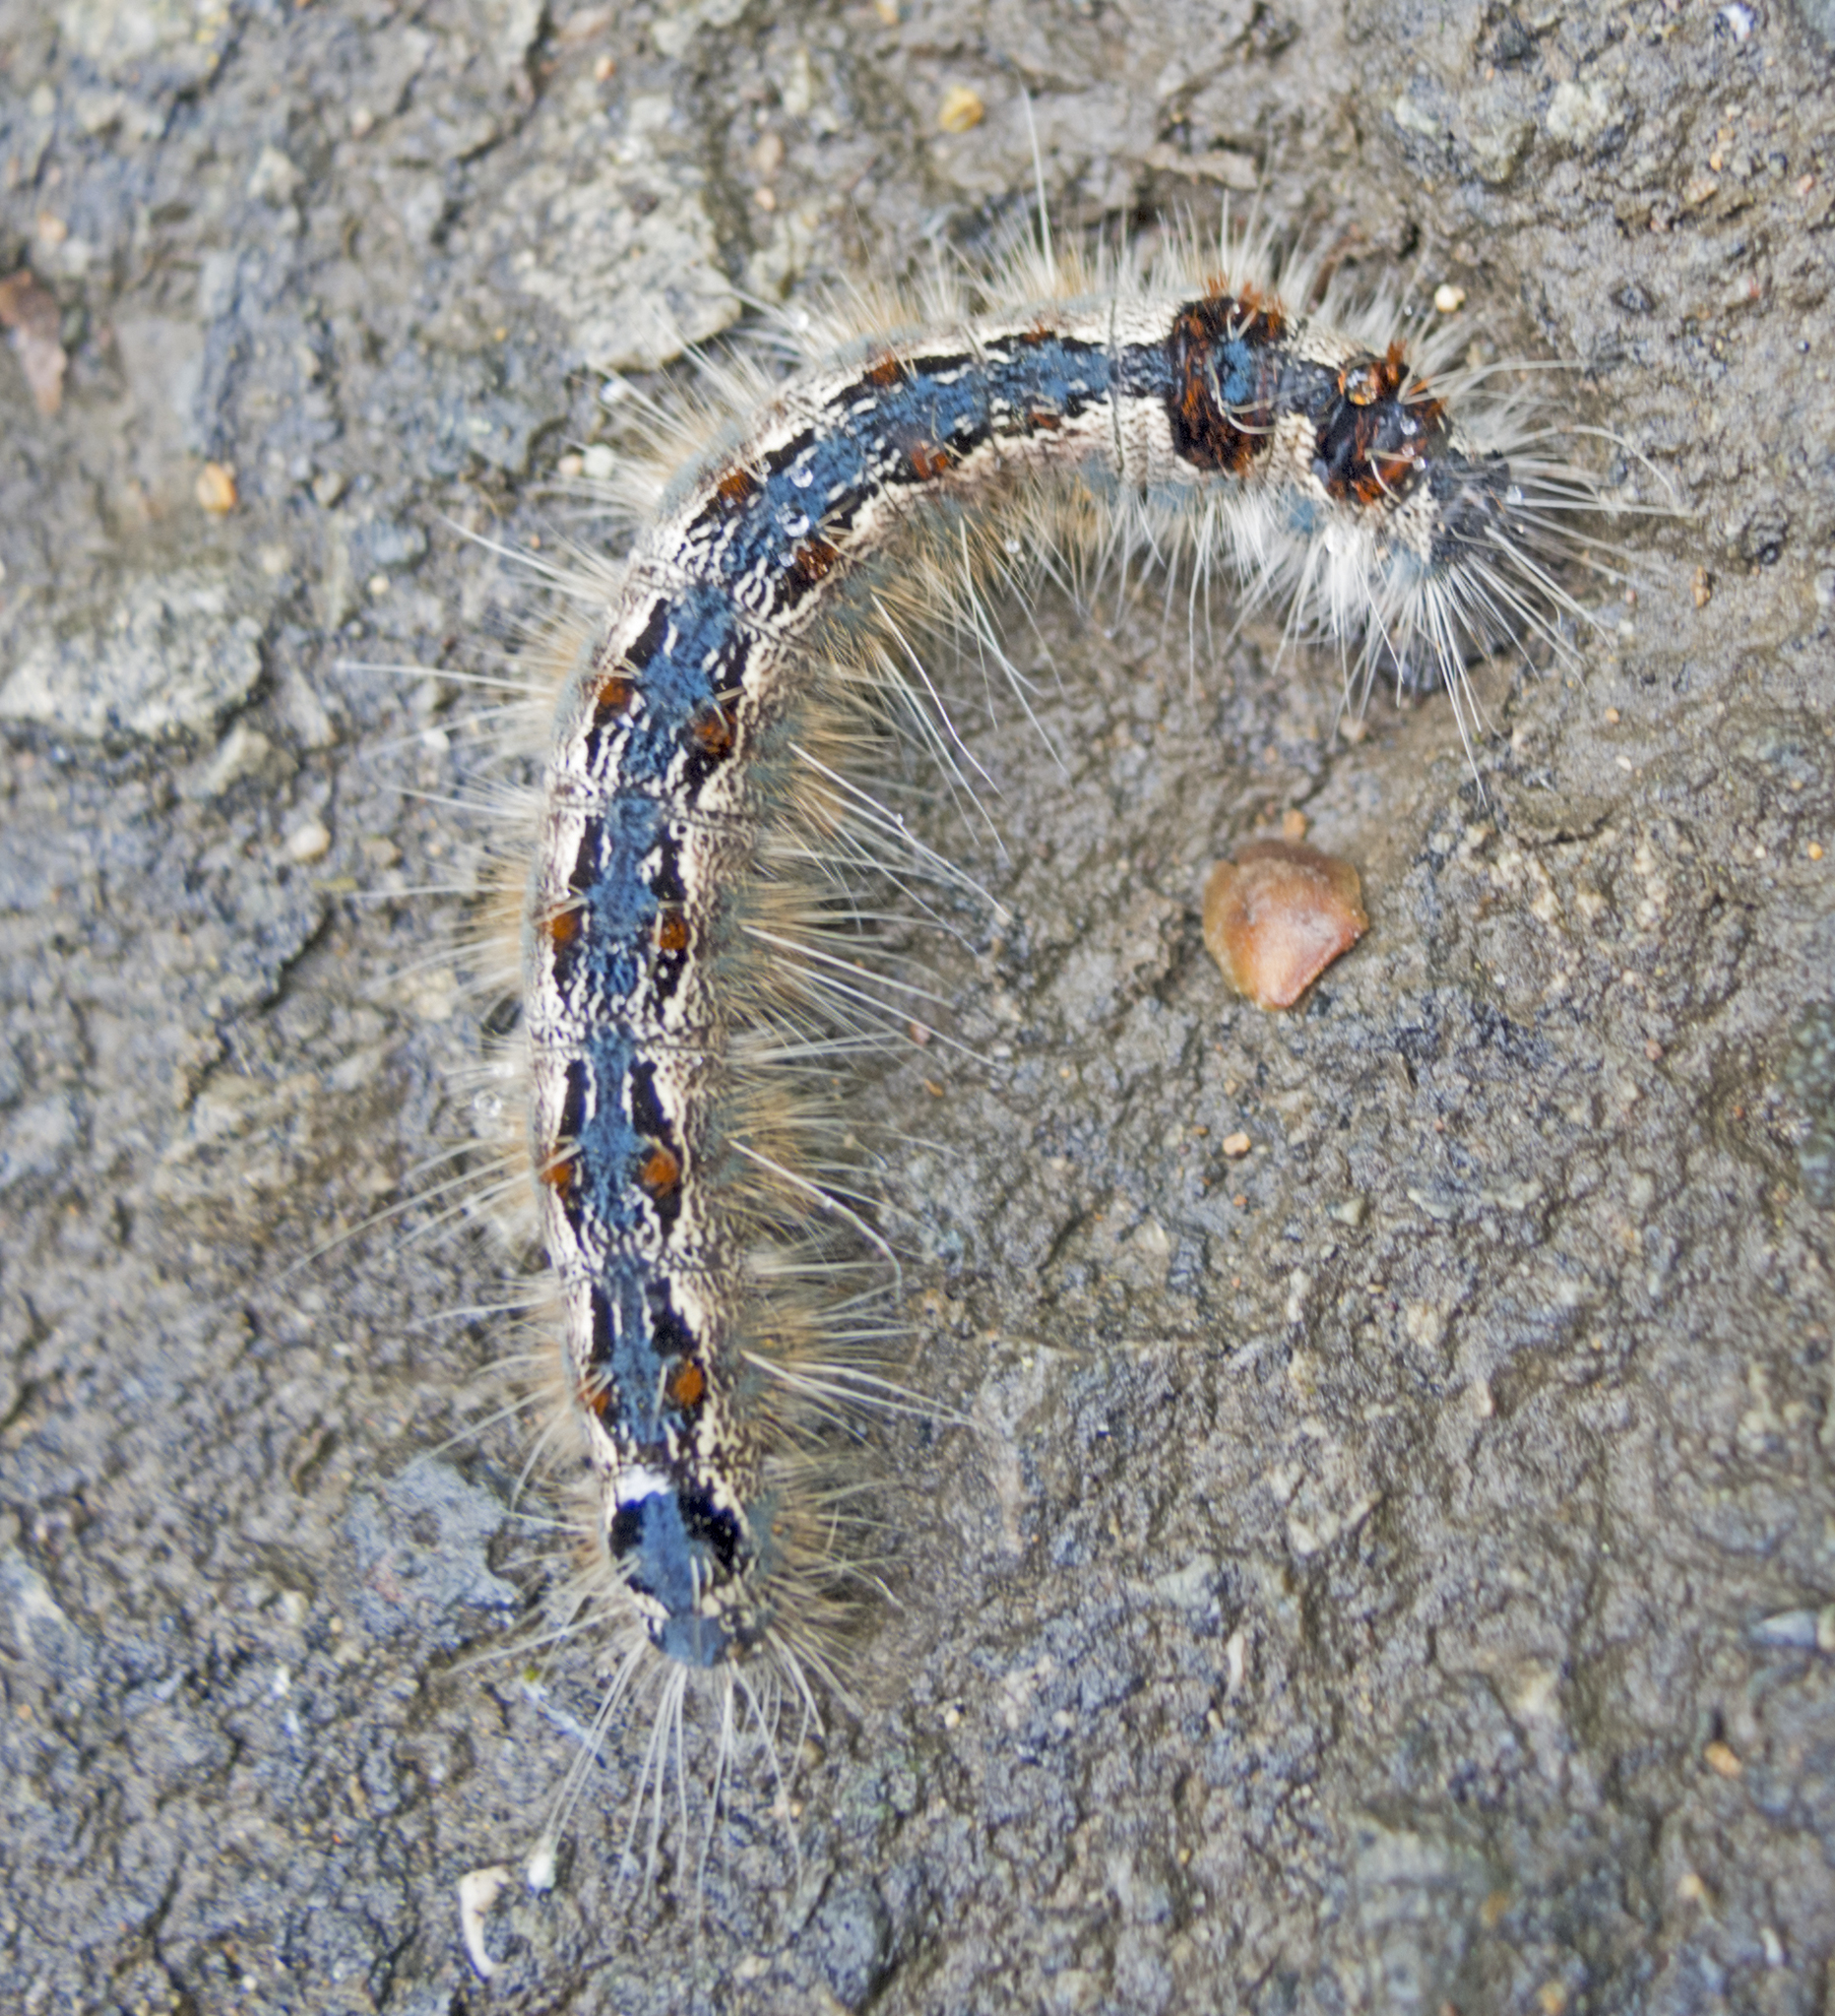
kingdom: Animalia
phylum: Arthropoda
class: Insecta
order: Lepidoptera
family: Lasiocampidae
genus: Eriogaster
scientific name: Eriogaster rimicola
